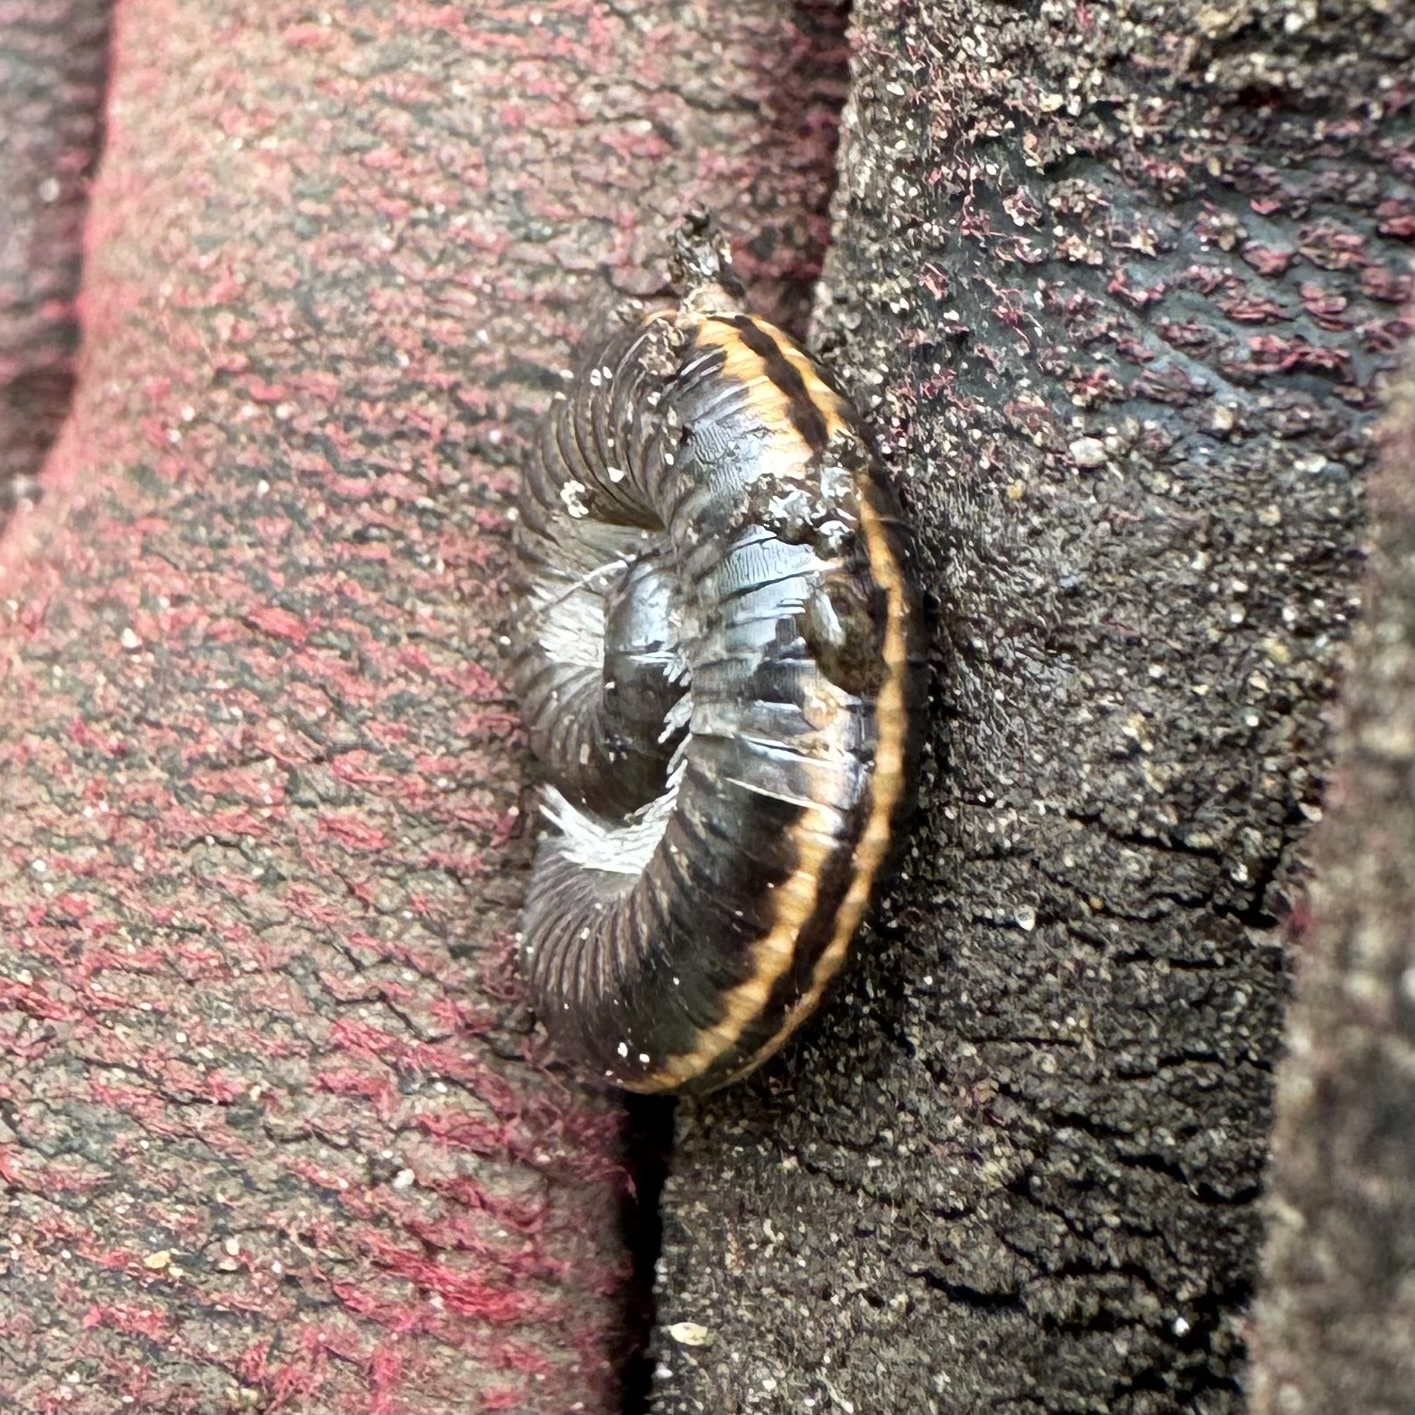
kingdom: Animalia
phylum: Arthropoda
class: Diplopoda
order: Julida
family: Julidae
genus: Ommatoiulus
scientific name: Ommatoiulus sabulosus
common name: Striped millipede
